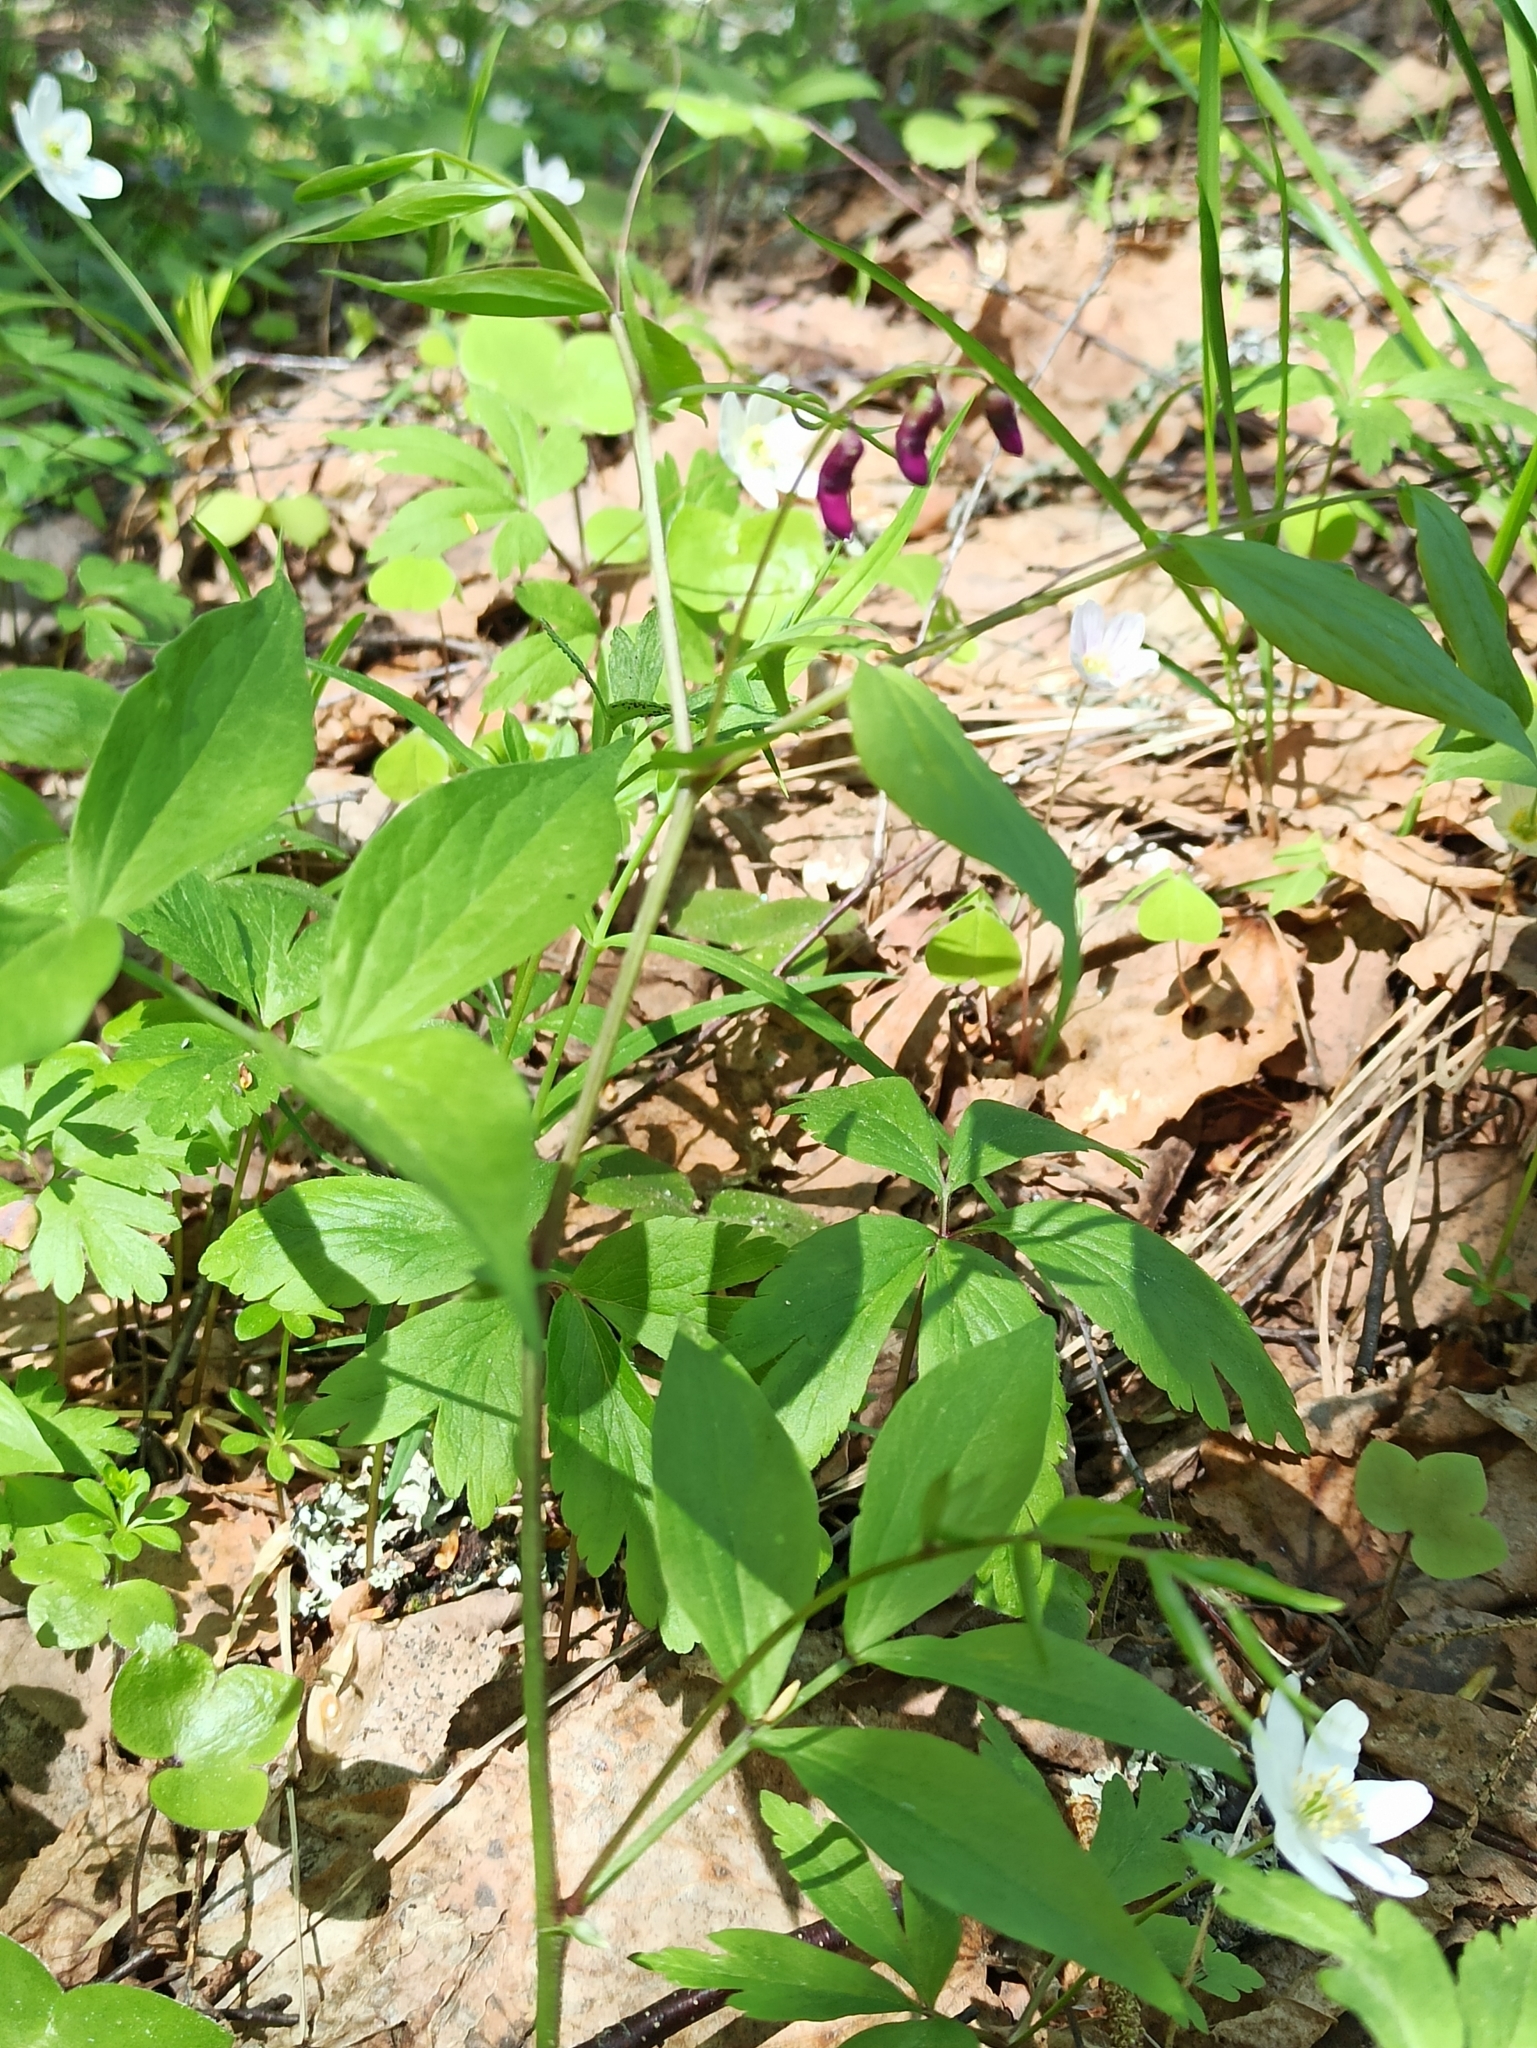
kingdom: Plantae
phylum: Tracheophyta
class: Magnoliopsida
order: Fabales
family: Fabaceae
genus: Lathyrus
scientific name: Lathyrus vernus
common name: Spring pea
